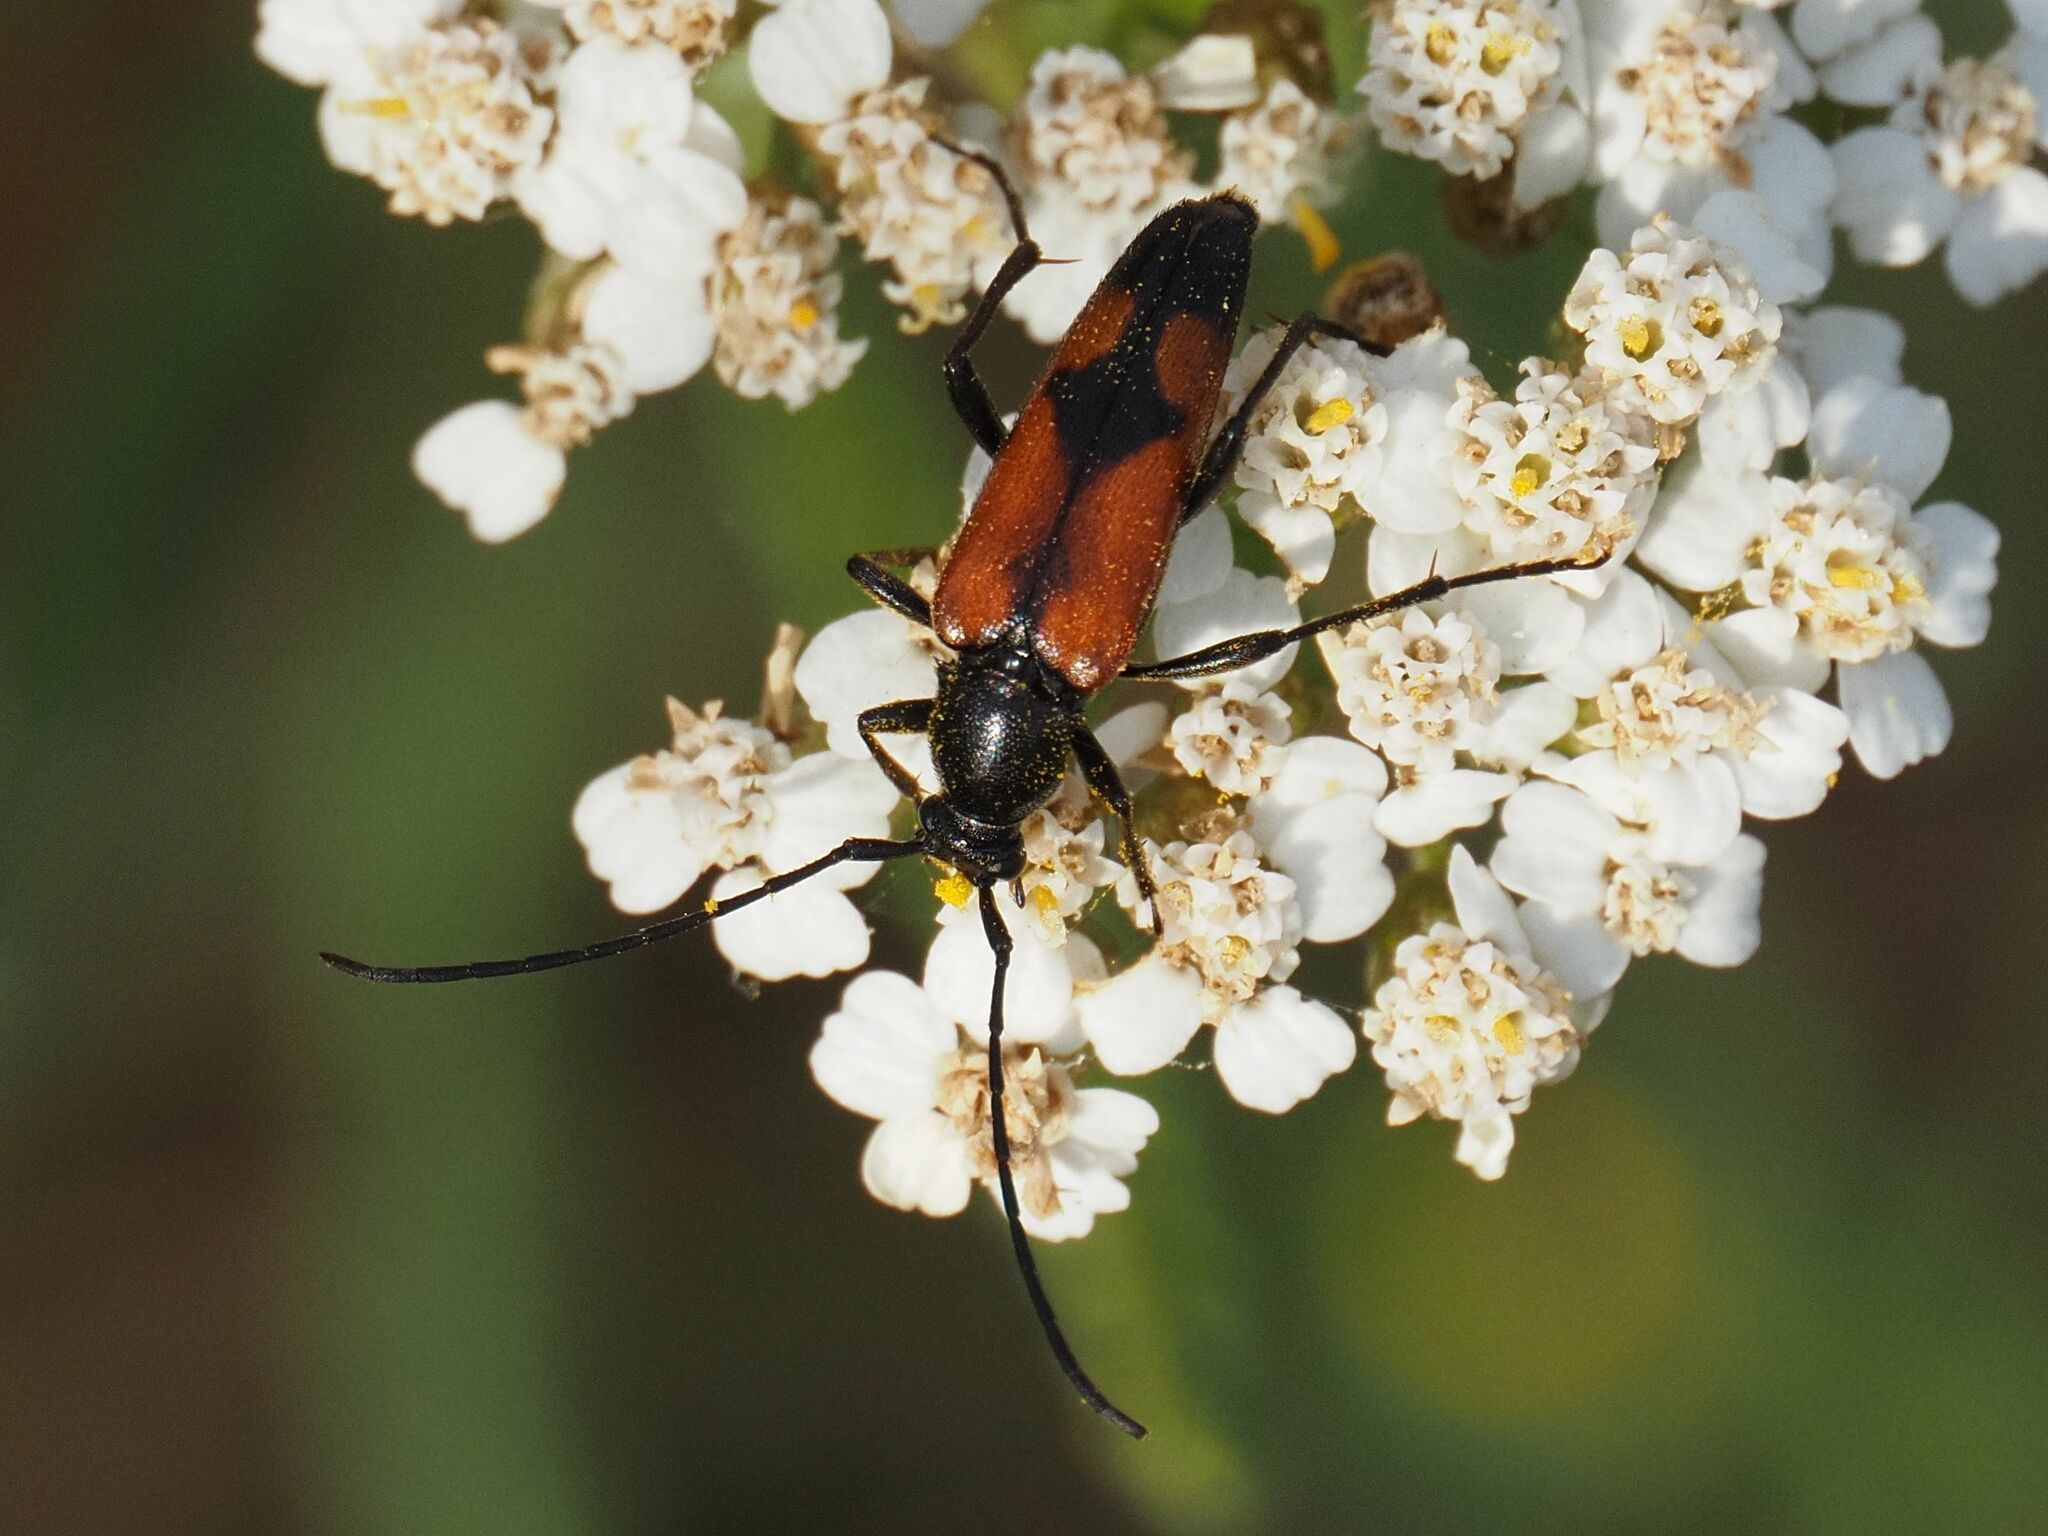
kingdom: Animalia
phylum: Arthropoda
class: Insecta
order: Coleoptera
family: Cerambycidae
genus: Stenurella
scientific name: Stenurella bifasciata
